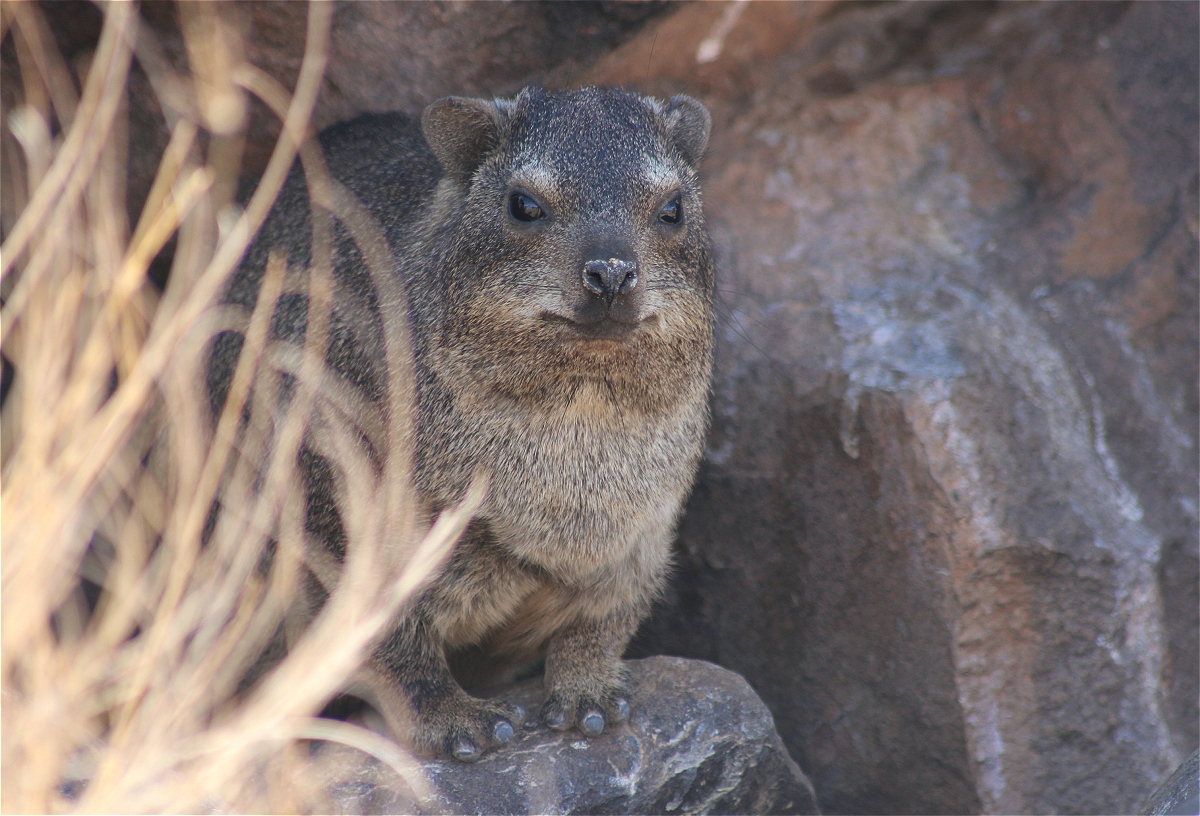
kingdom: Animalia
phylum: Chordata
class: Mammalia
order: Hyracoidea
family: Procaviidae
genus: Procavia
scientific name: Procavia capensis
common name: Rock hyrax
